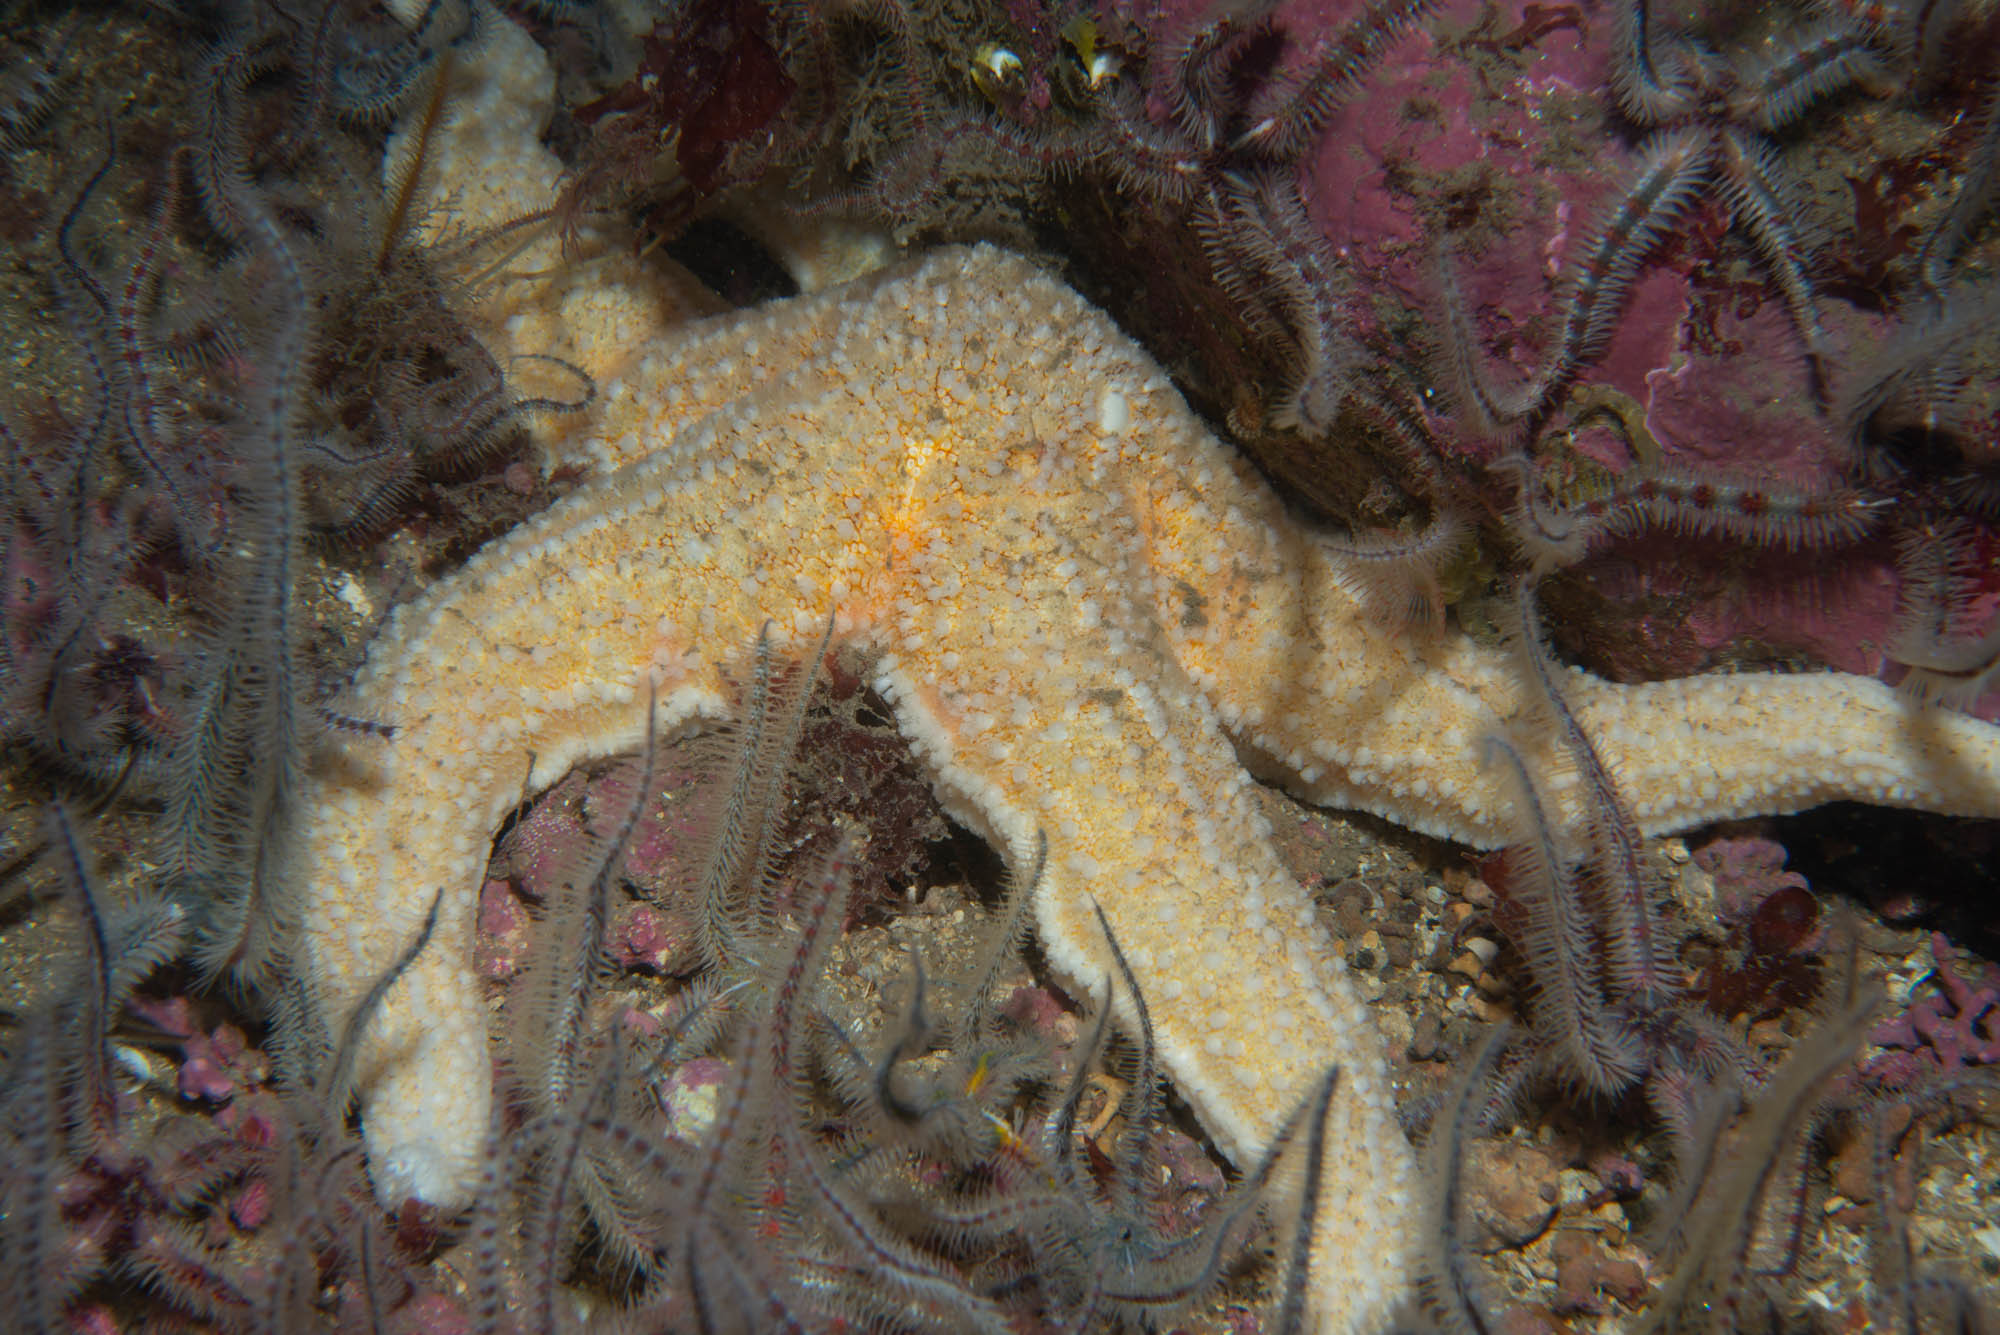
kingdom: Animalia
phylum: Echinodermata
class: Asteroidea
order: Forcipulatida
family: Asteriidae
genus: Asterias
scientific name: Asterias rubens
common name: Common starfish
